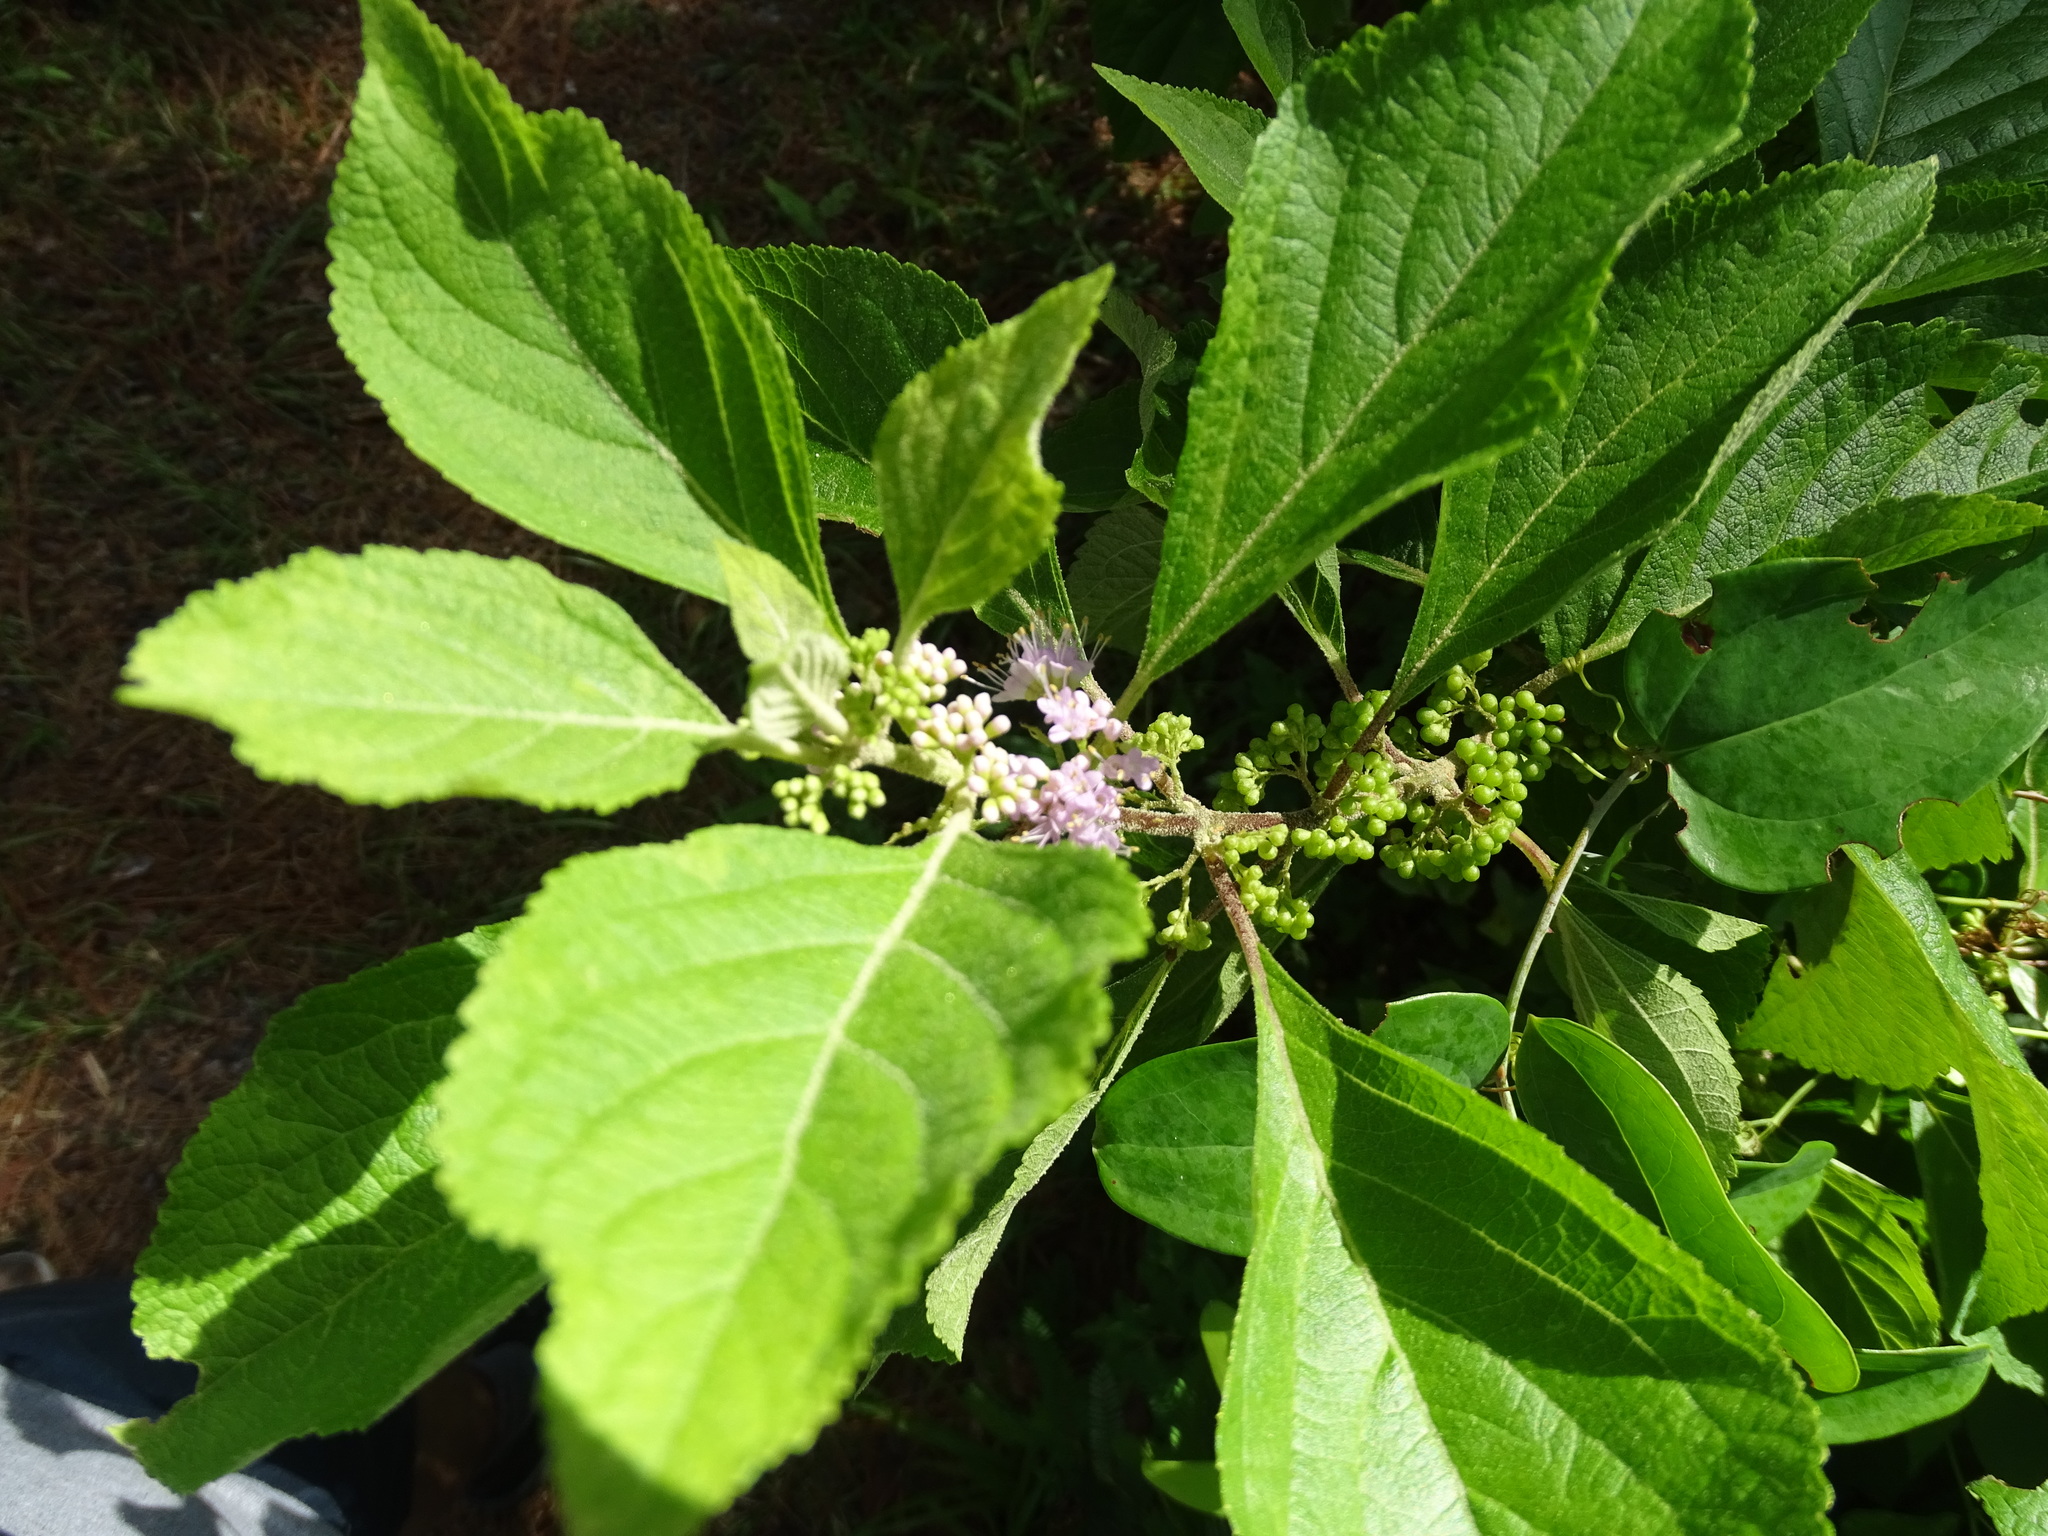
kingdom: Plantae
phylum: Tracheophyta
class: Magnoliopsida
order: Lamiales
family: Lamiaceae
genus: Callicarpa
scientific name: Callicarpa americana
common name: American beautyberry
